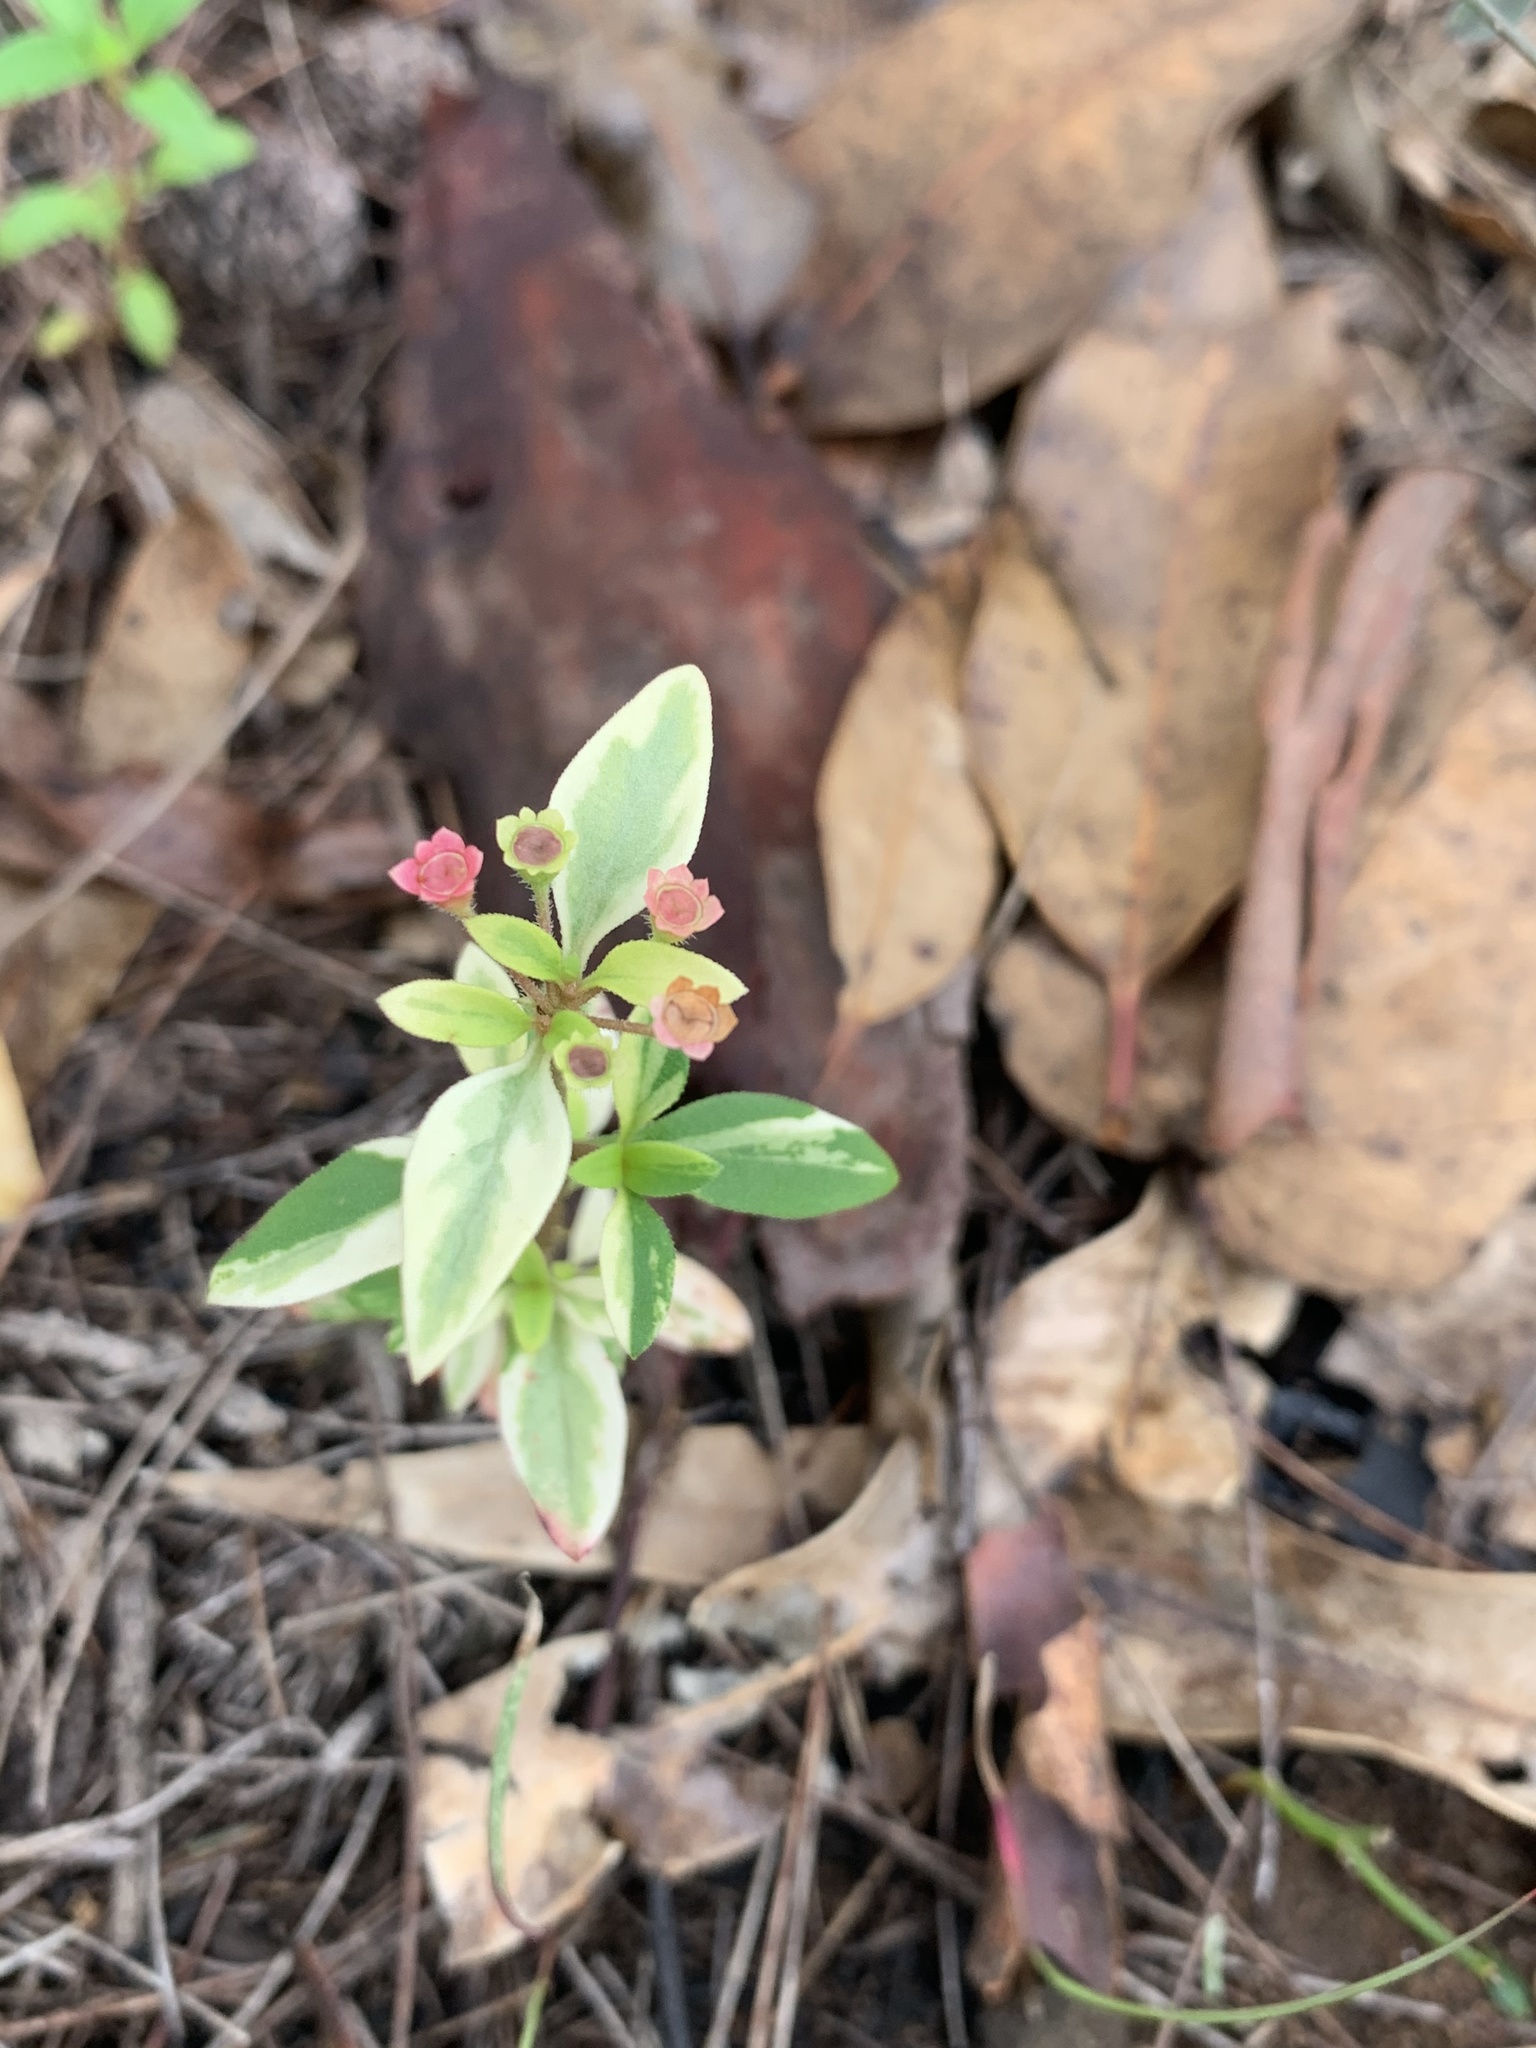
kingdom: Plantae
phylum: Tracheophyta
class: Magnoliopsida
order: Gentianales
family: Rubiaceae
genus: Pomax
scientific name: Pomax umbellata
